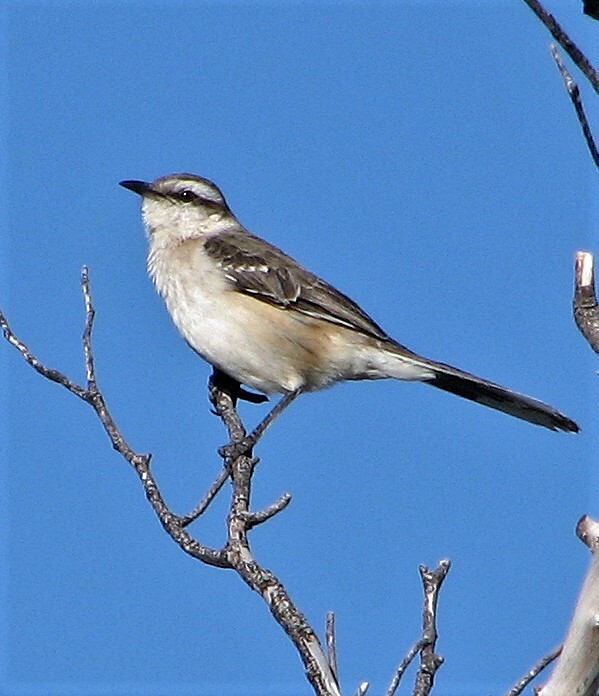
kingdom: Animalia
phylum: Chordata
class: Aves
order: Passeriformes
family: Mimidae
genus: Mimus
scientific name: Mimus saturninus
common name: Chalk-browed mockingbird
